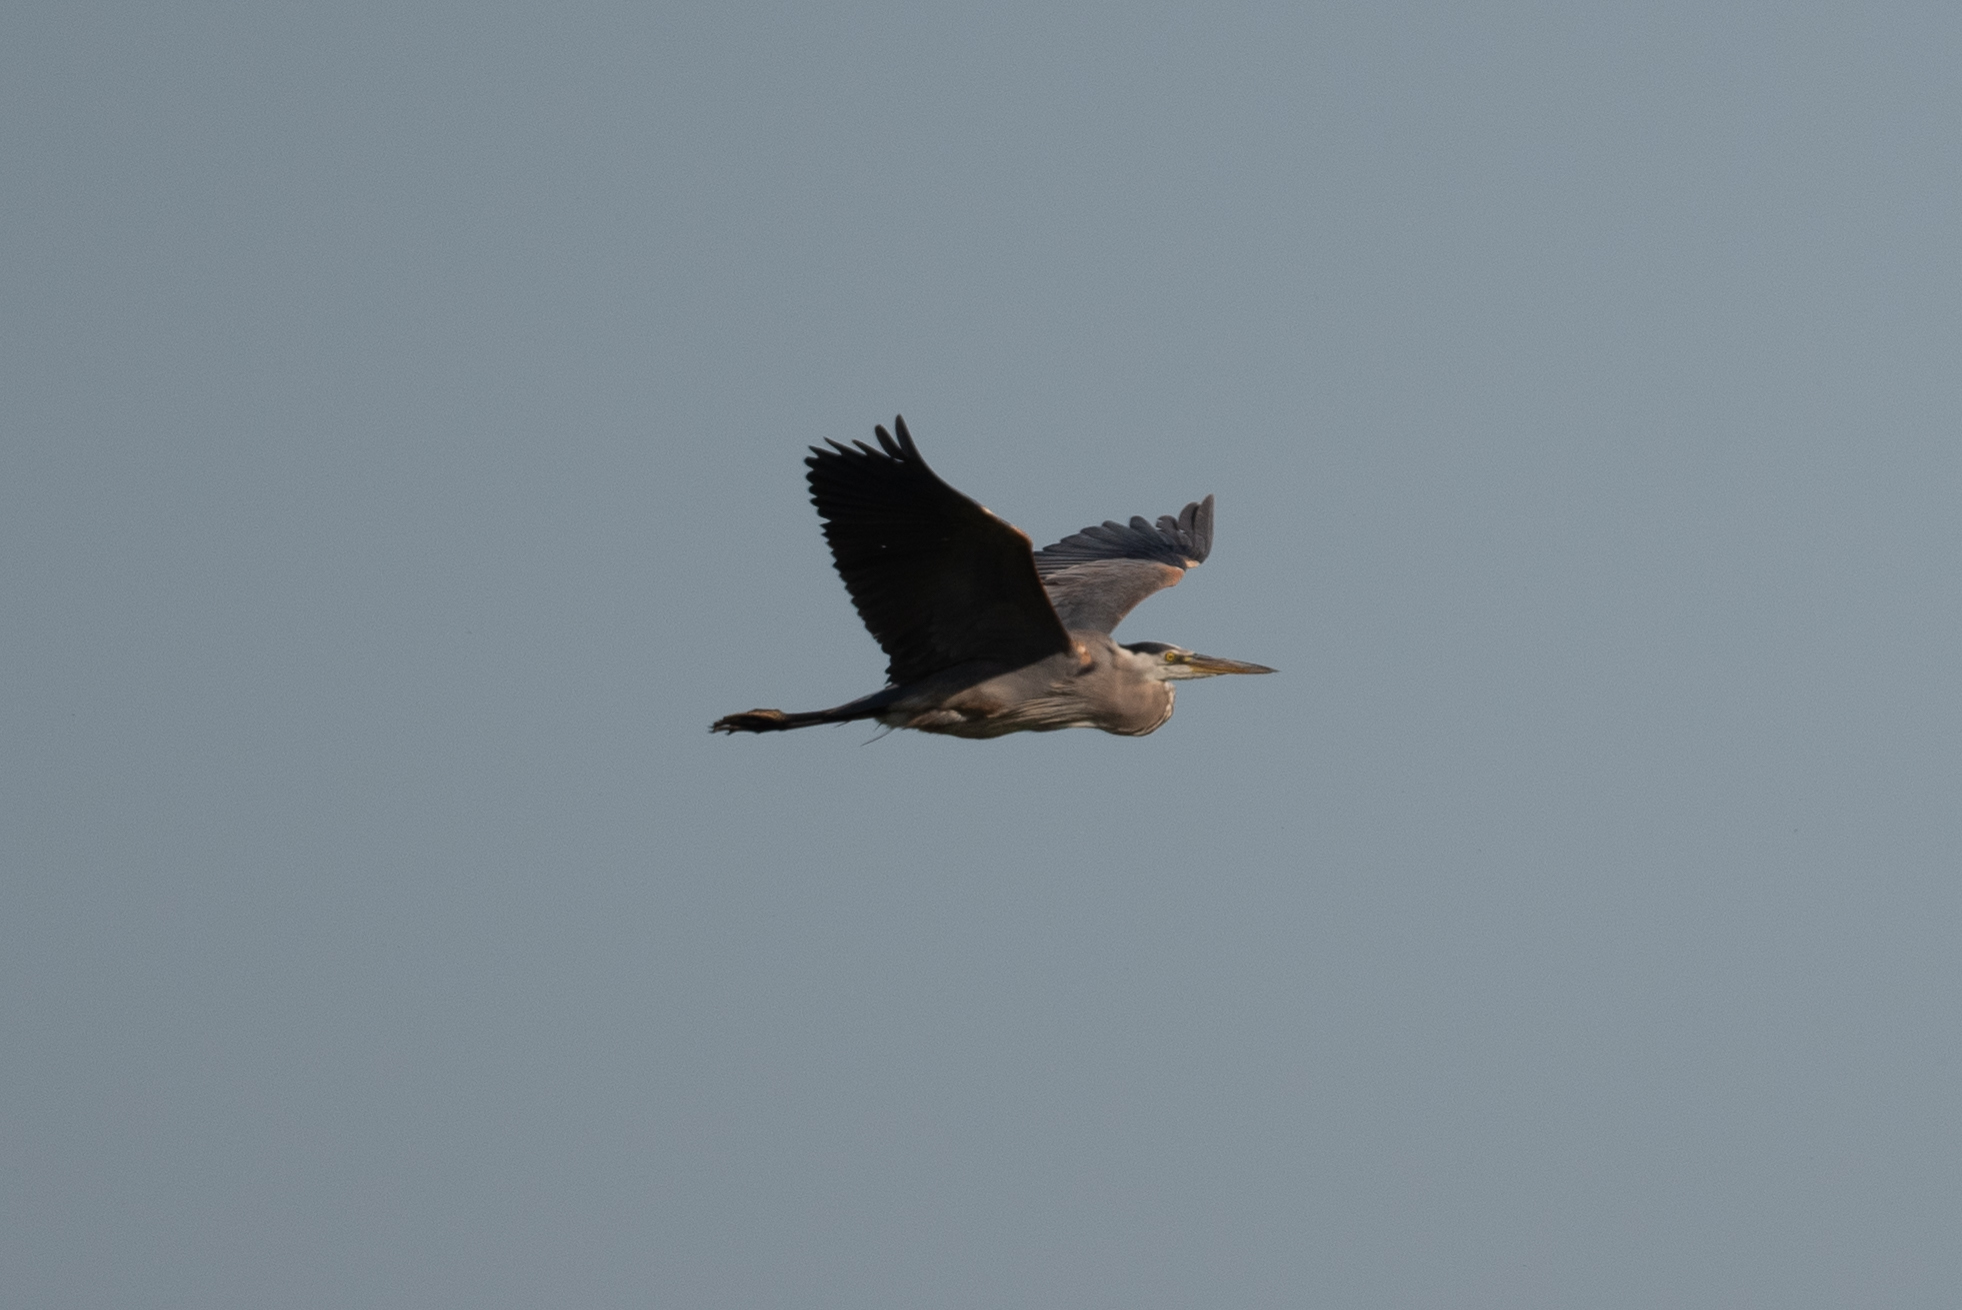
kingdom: Animalia
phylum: Chordata
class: Aves
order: Pelecaniformes
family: Ardeidae
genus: Ardea
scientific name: Ardea herodias
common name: Great blue heron
